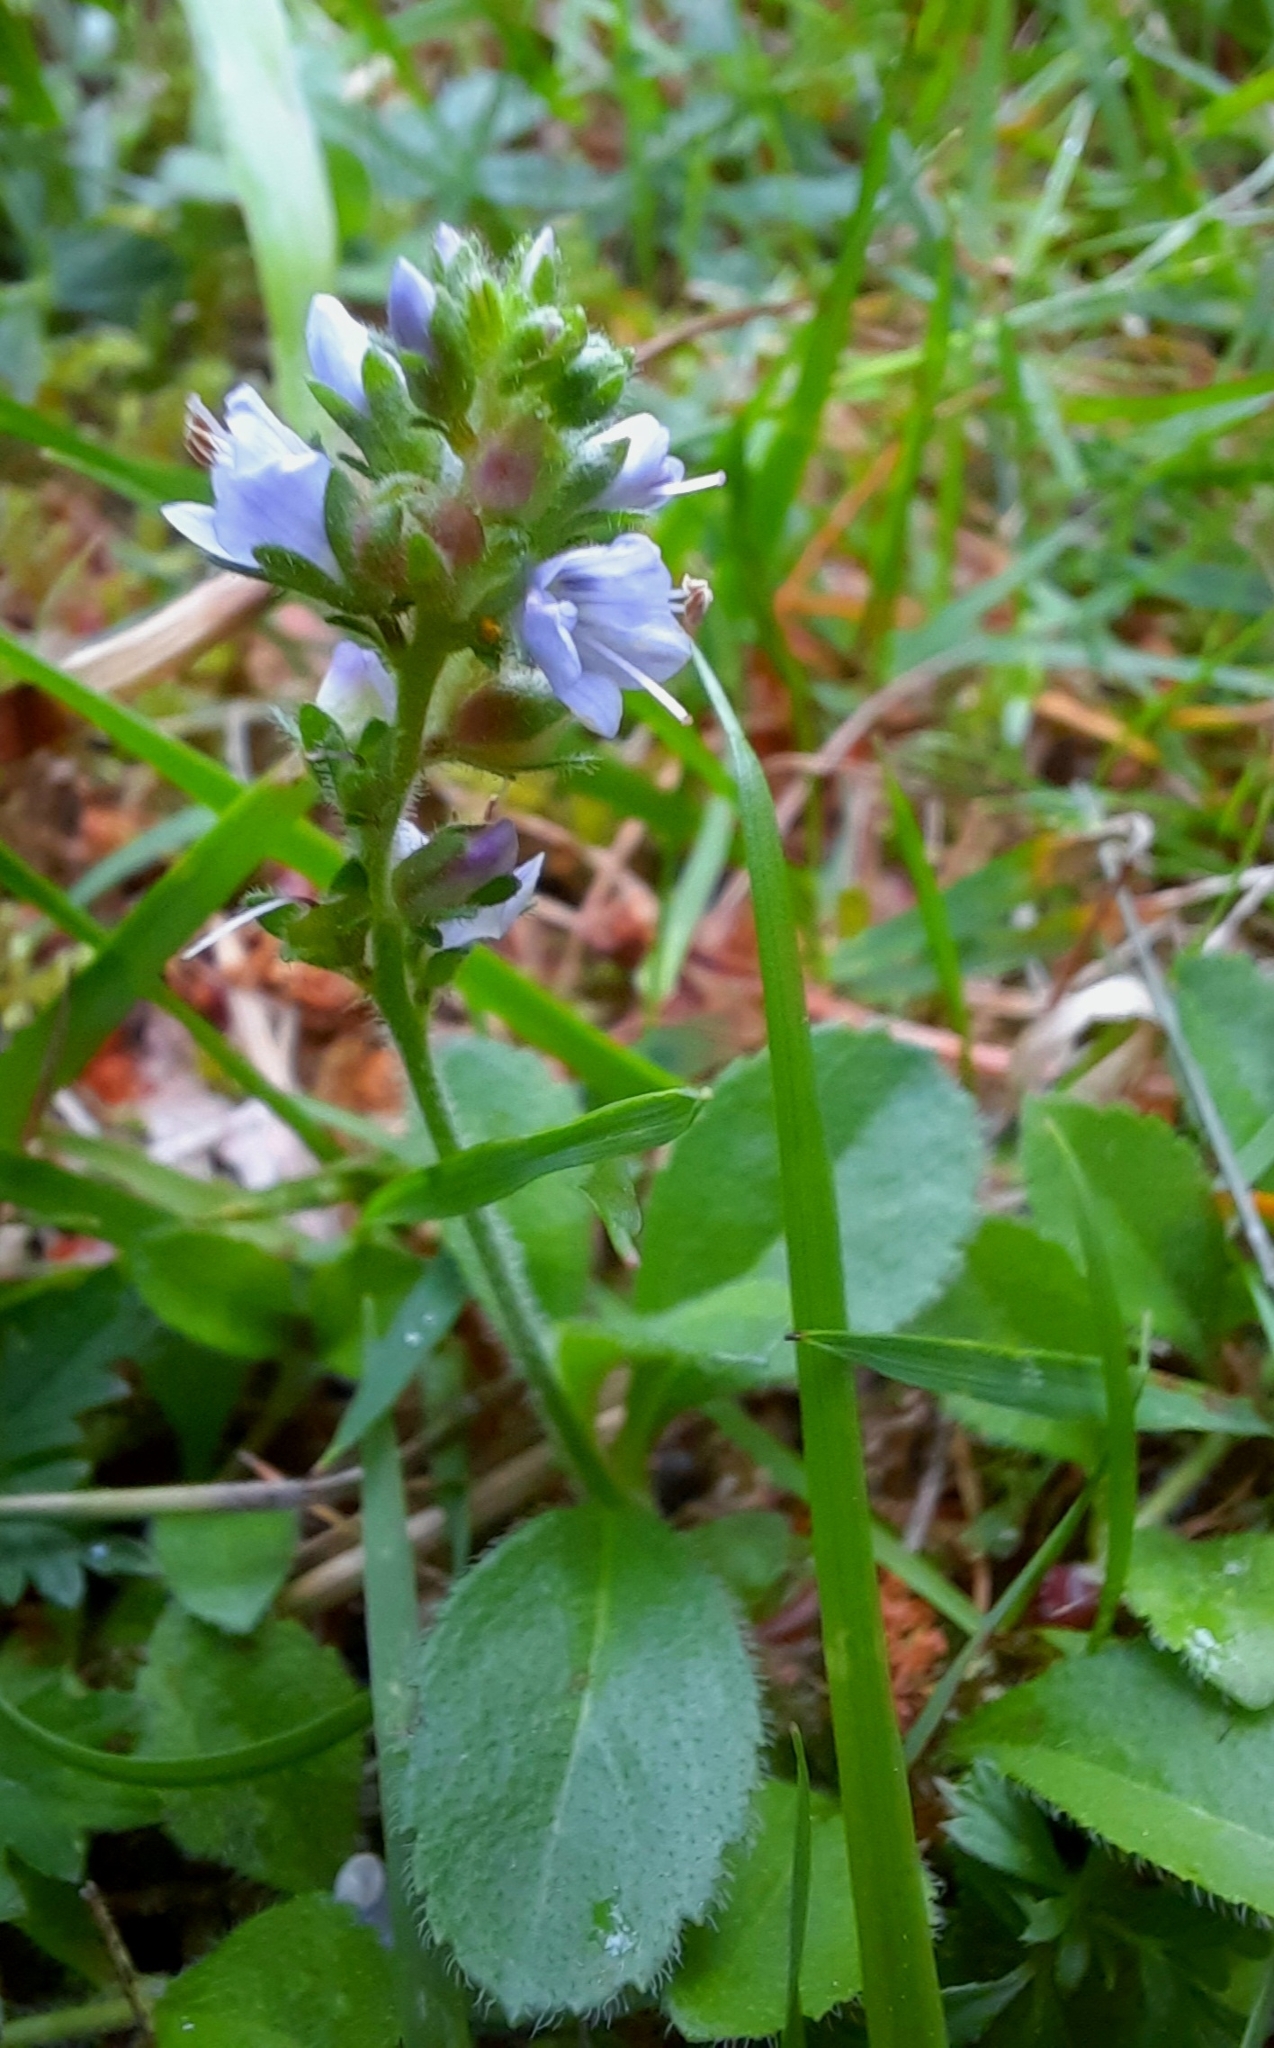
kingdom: Plantae
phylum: Tracheophyta
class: Magnoliopsida
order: Lamiales
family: Plantaginaceae
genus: Veronica
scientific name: Veronica officinalis
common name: Common speedwell
